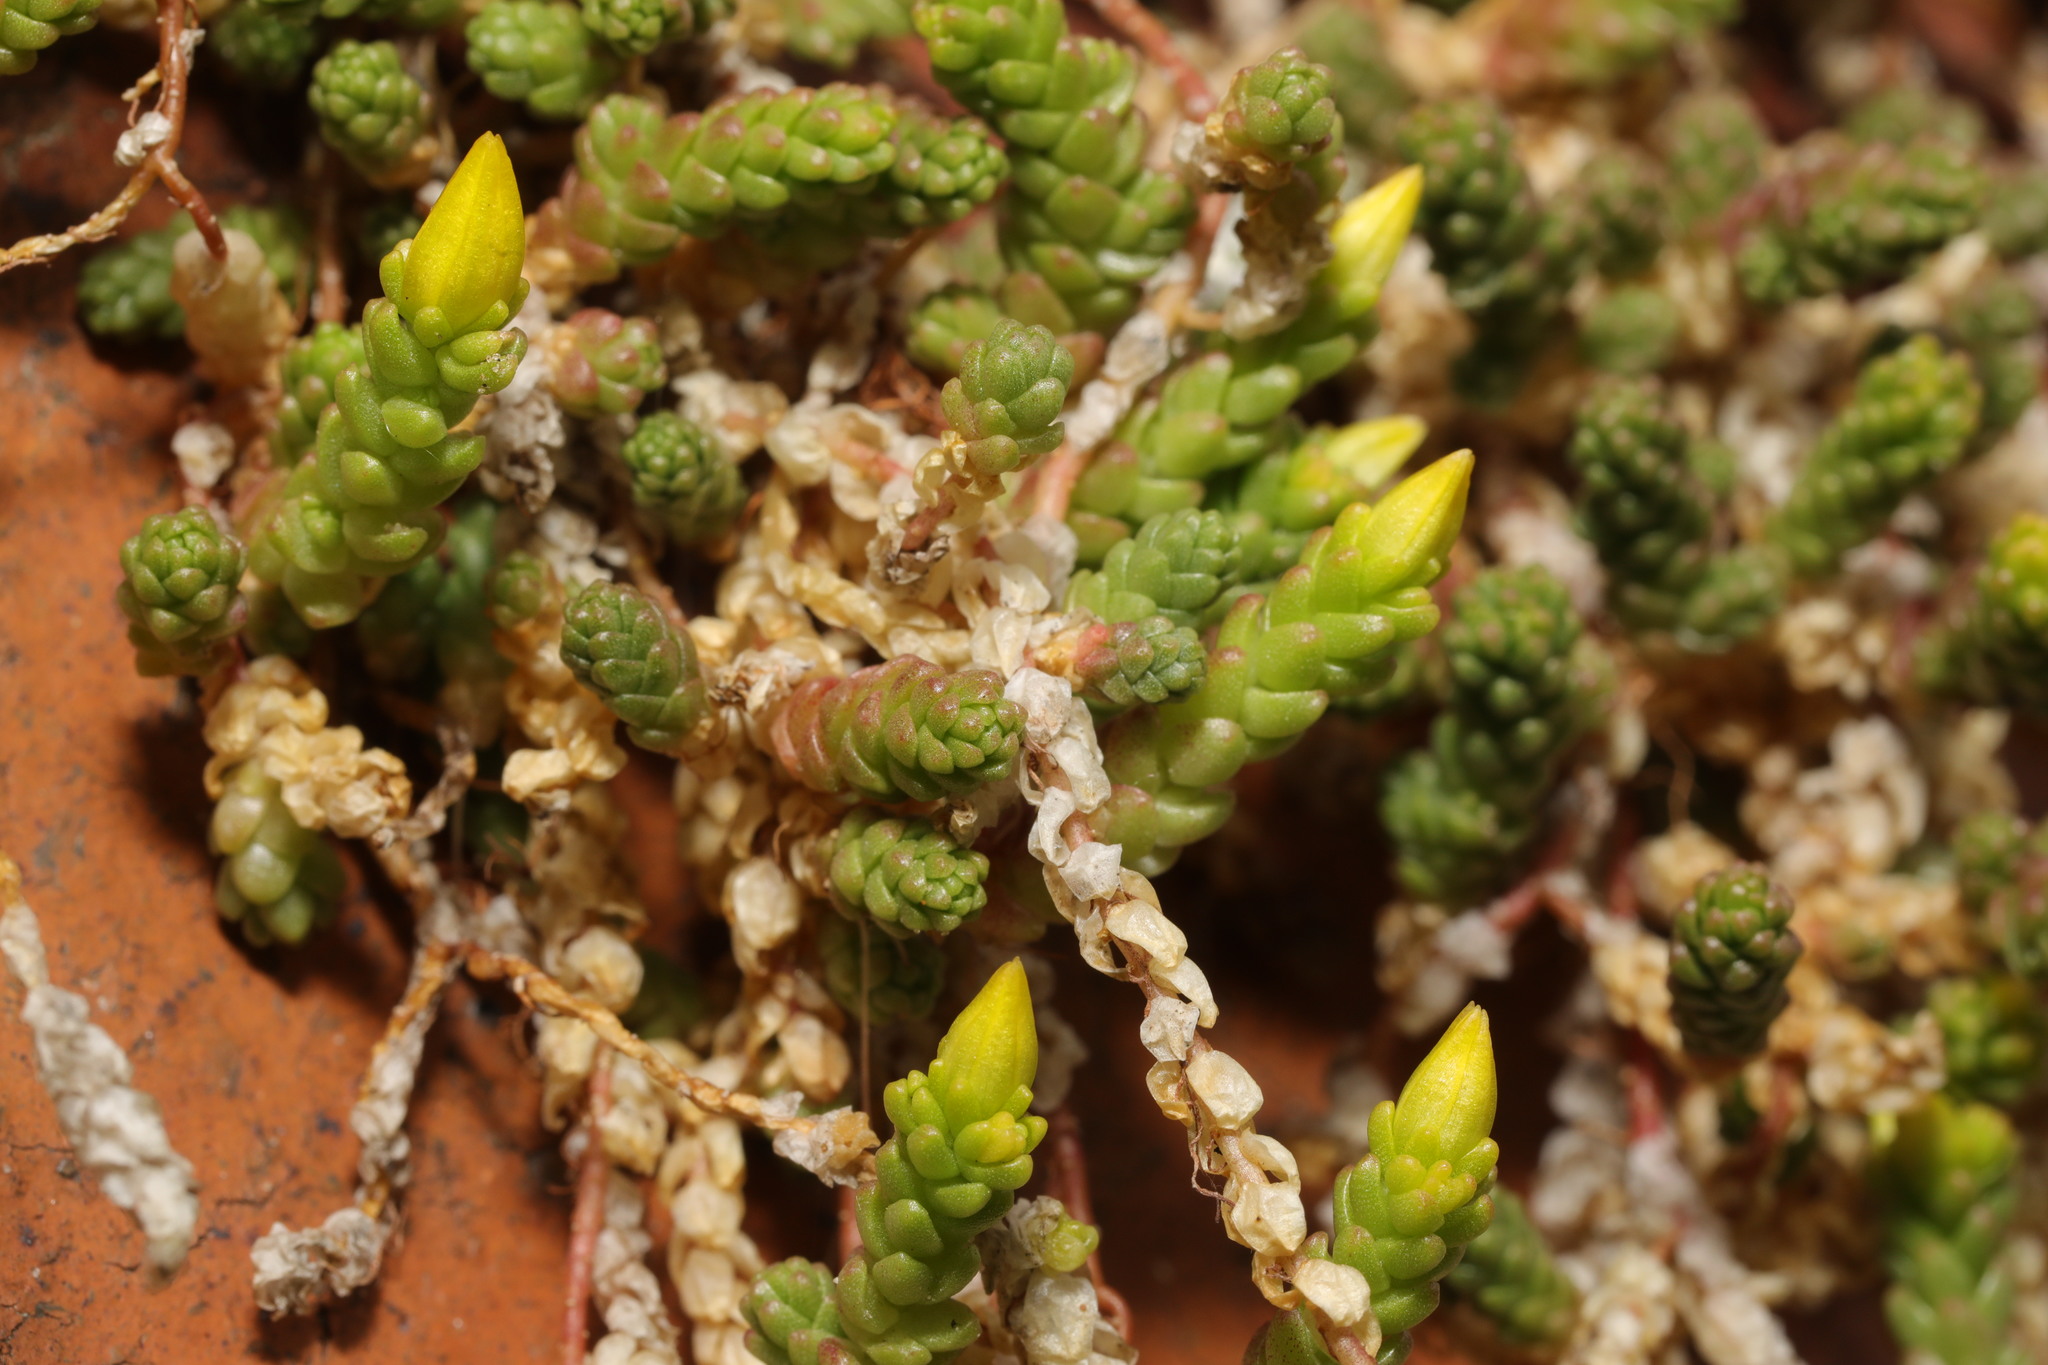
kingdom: Plantae
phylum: Tracheophyta
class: Magnoliopsida
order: Saxifragales
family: Crassulaceae
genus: Sedum
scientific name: Sedum acre
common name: Biting stonecrop
